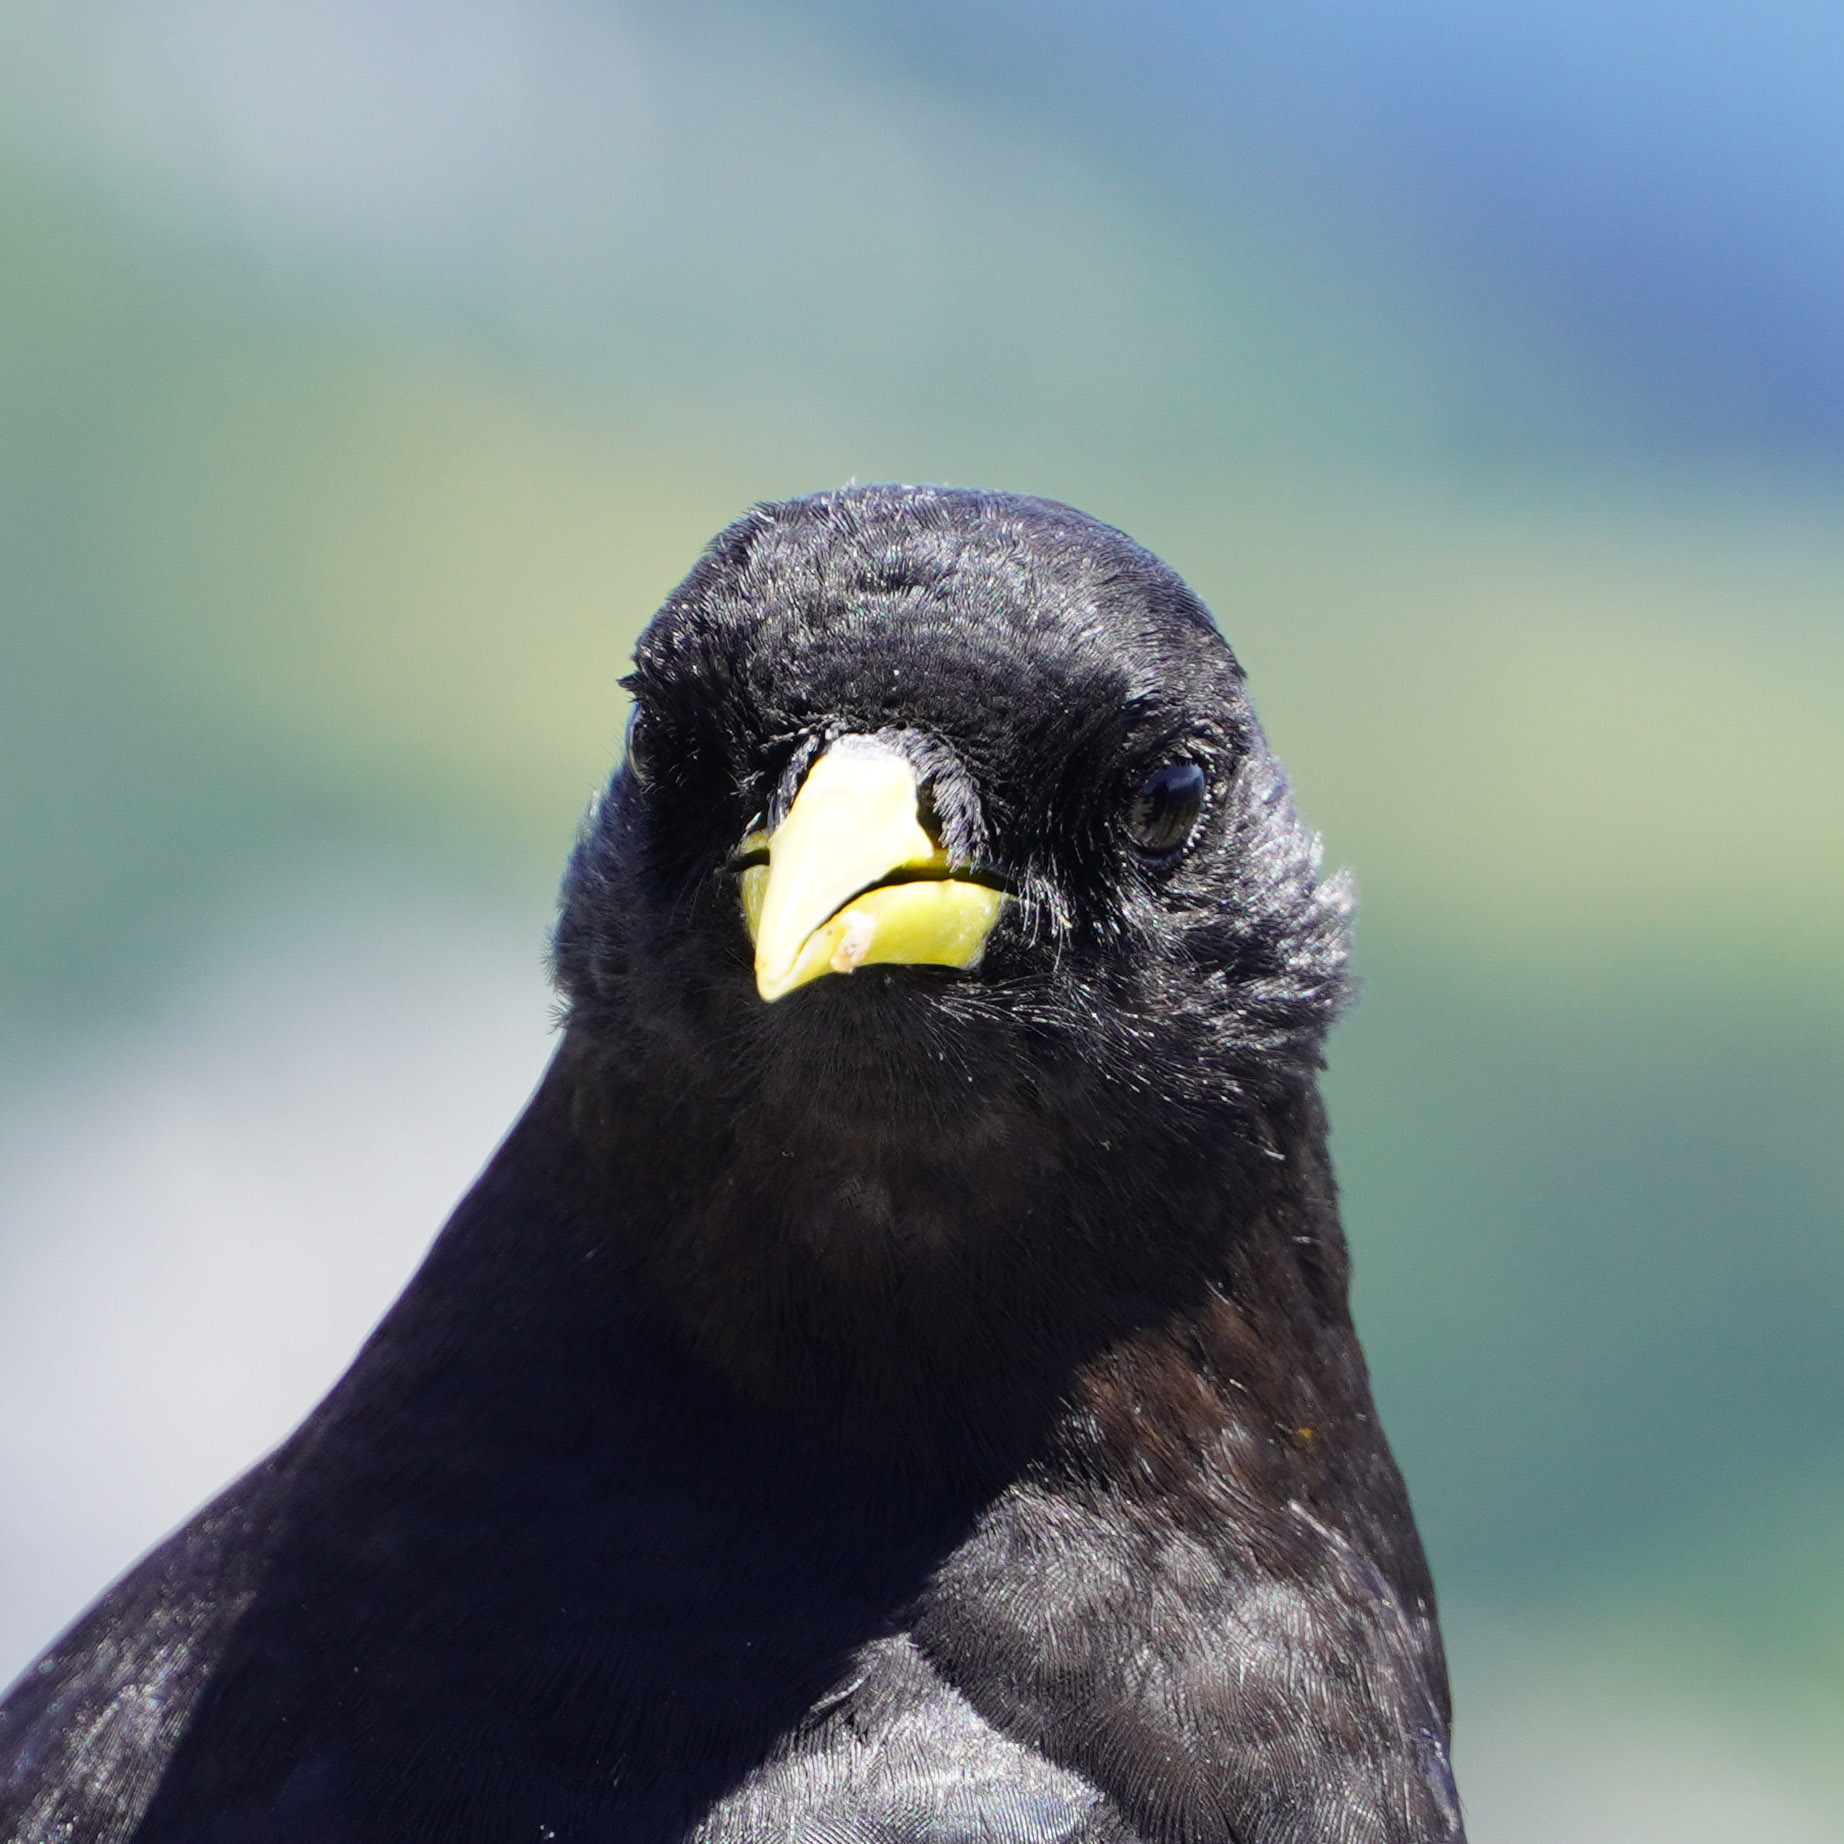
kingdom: Animalia
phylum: Chordata
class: Aves
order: Passeriformes
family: Corvidae
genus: Pyrrhocorax
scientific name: Pyrrhocorax graculus
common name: Alpine chough
